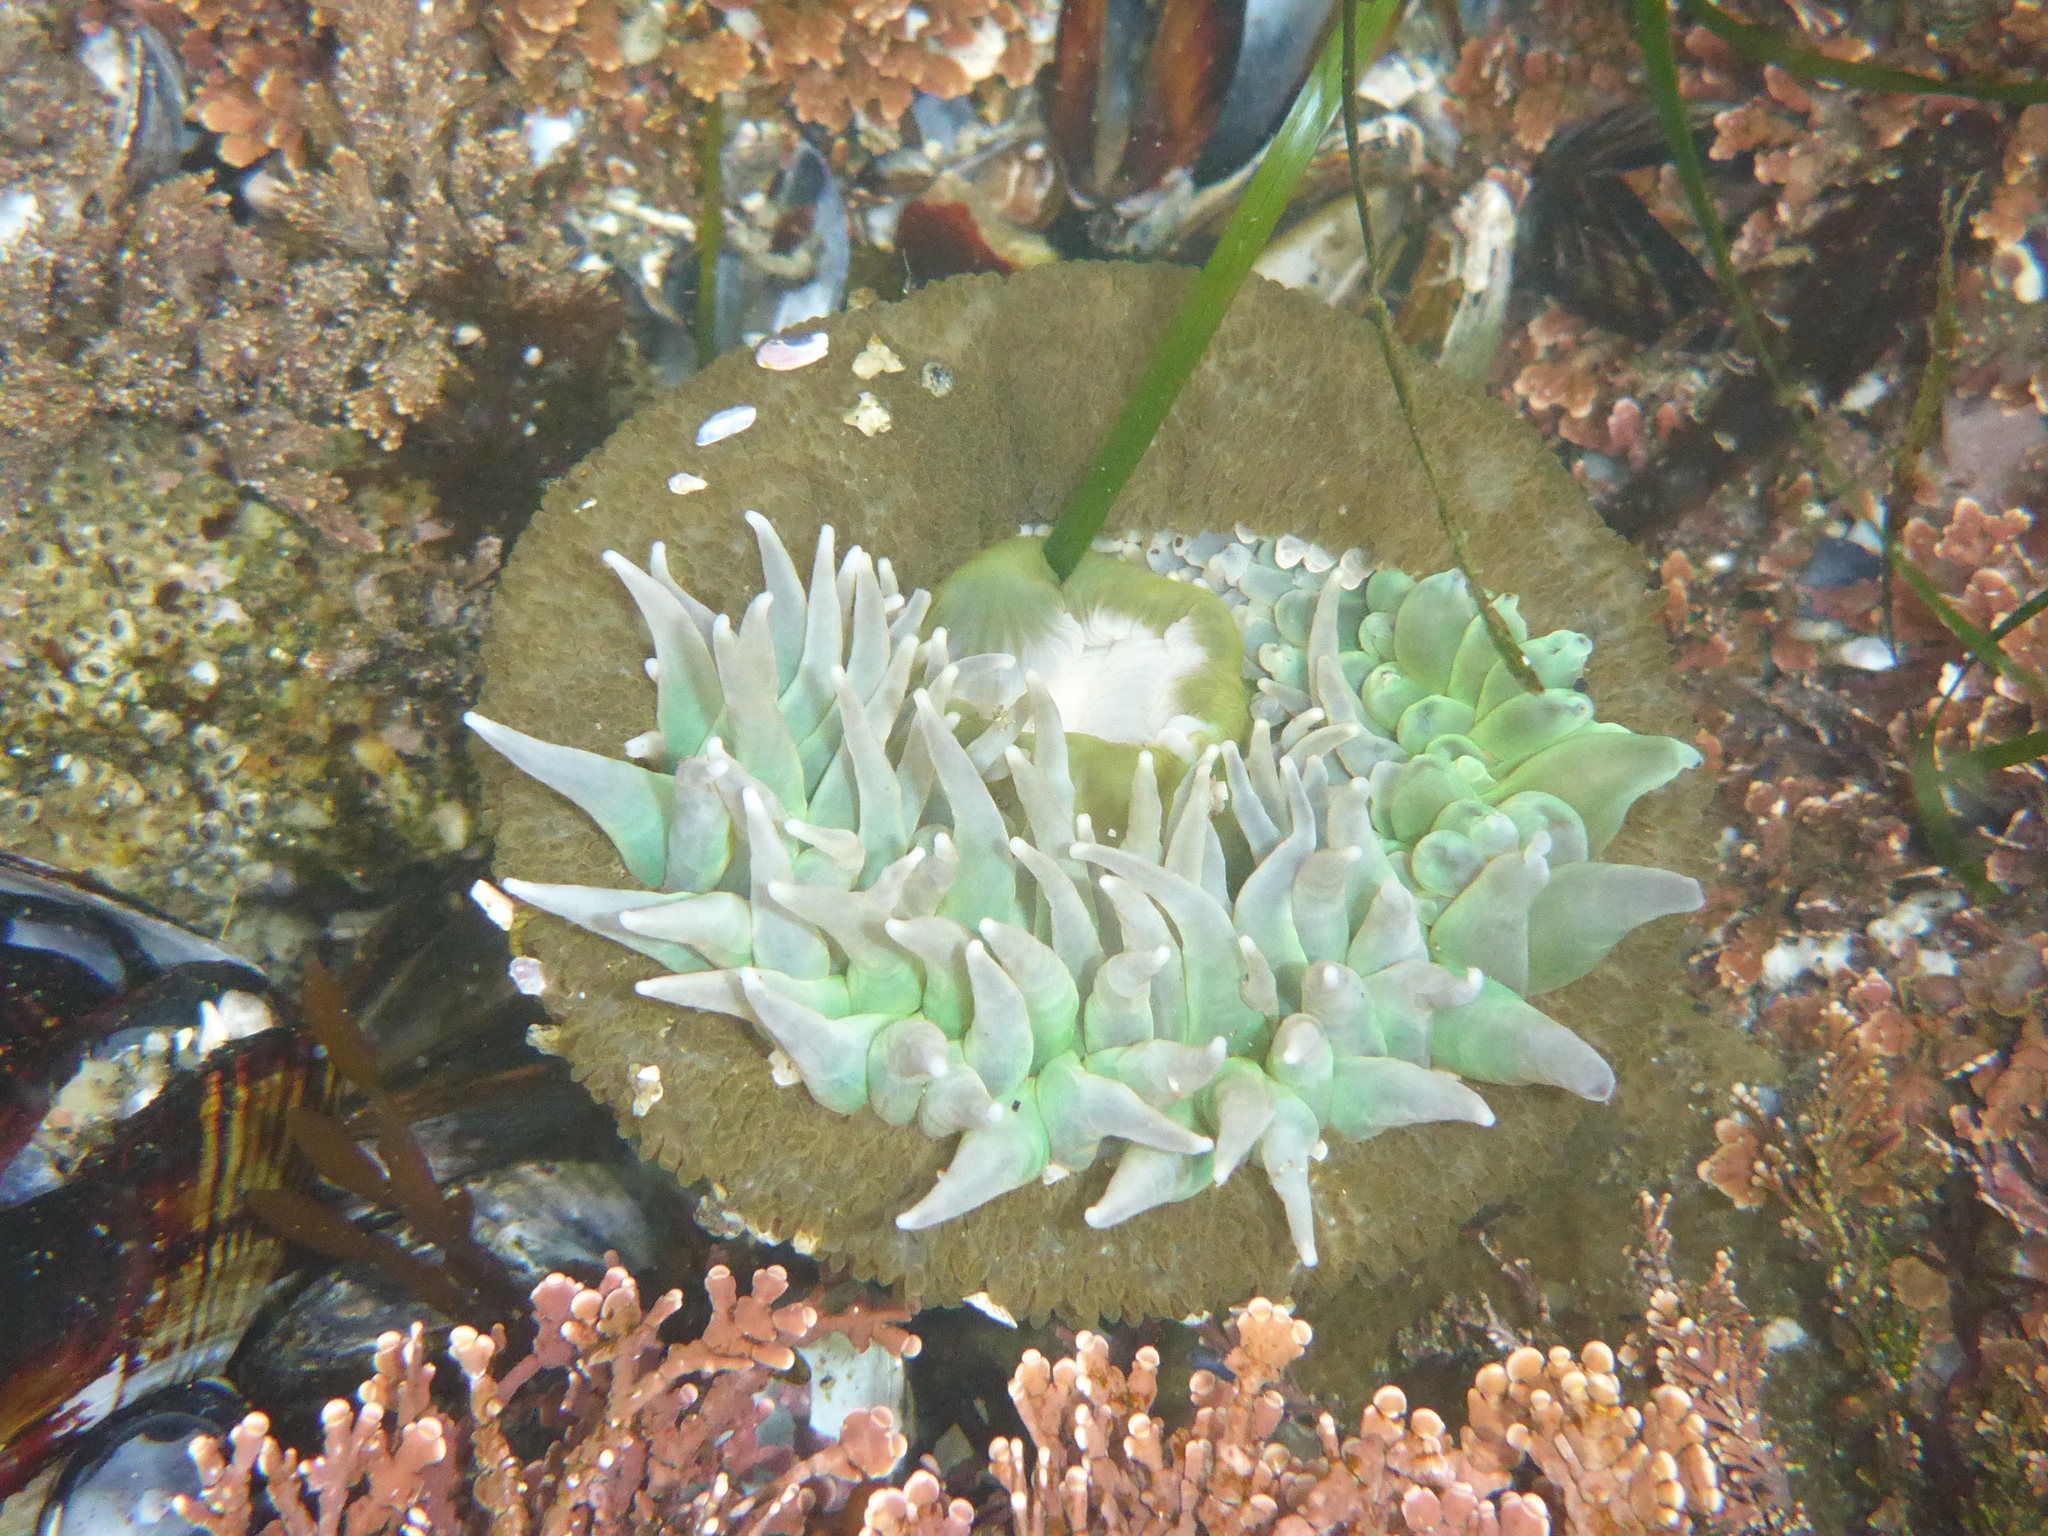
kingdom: Animalia
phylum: Cnidaria
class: Anthozoa
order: Actiniaria
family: Actiniidae
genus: Anthopleura
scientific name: Anthopleura xanthogrammica
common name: Giant green anemone
